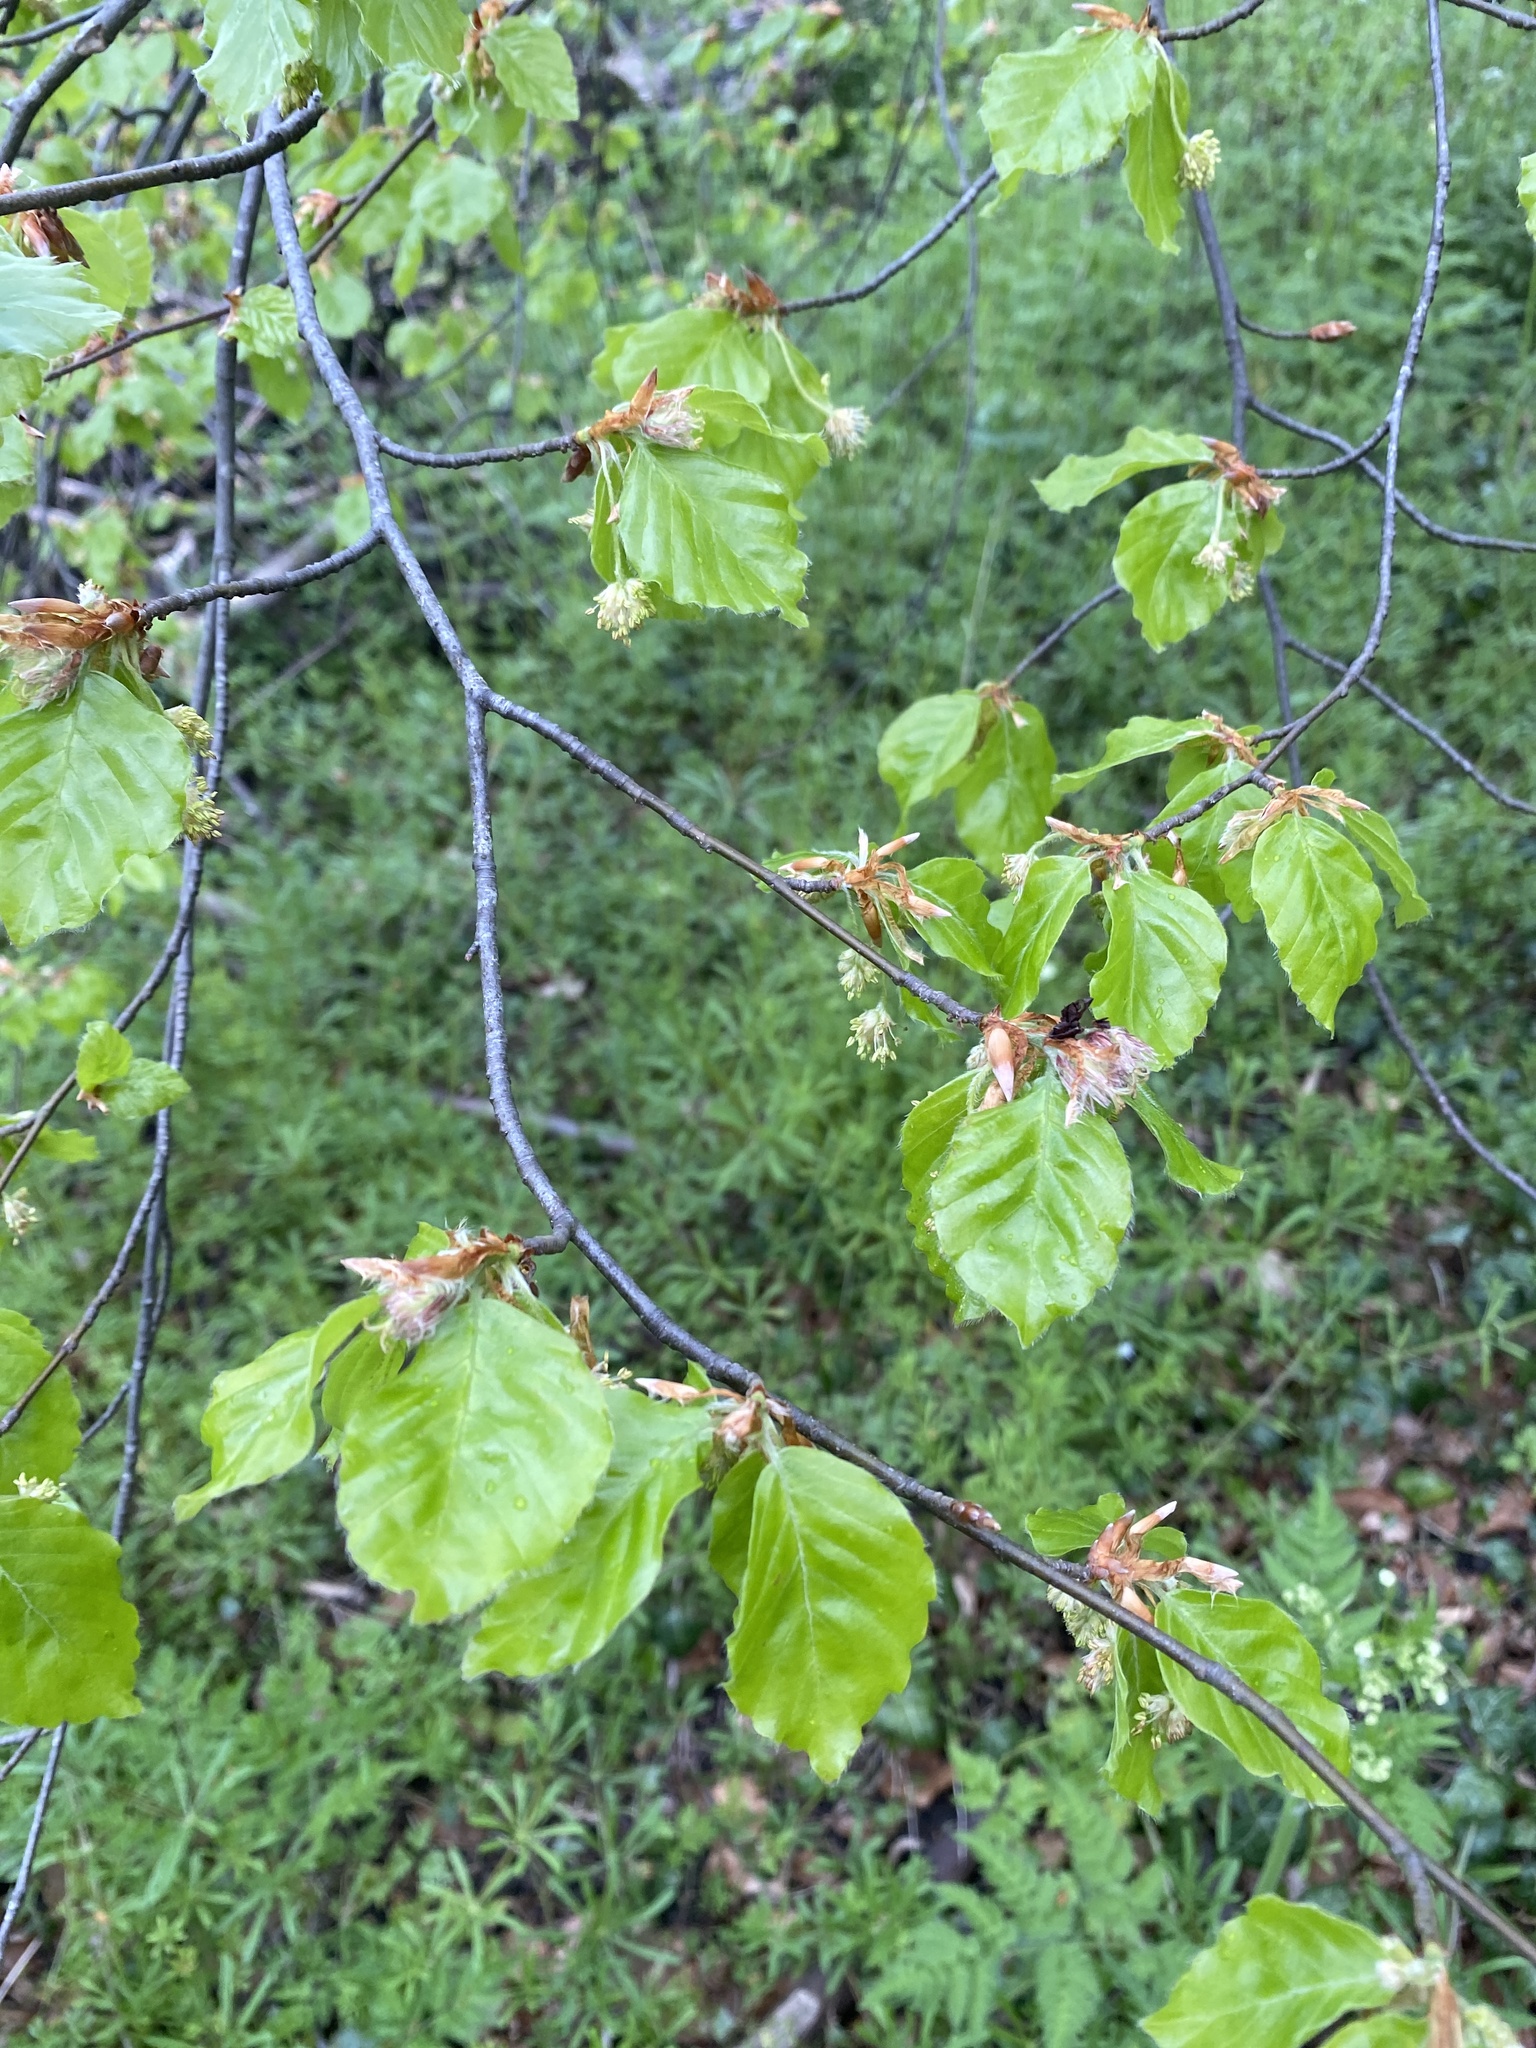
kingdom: Plantae
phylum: Tracheophyta
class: Magnoliopsida
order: Rosales
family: Ulmaceae
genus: Ulmus
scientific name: Ulmus glabra
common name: Wych elm
